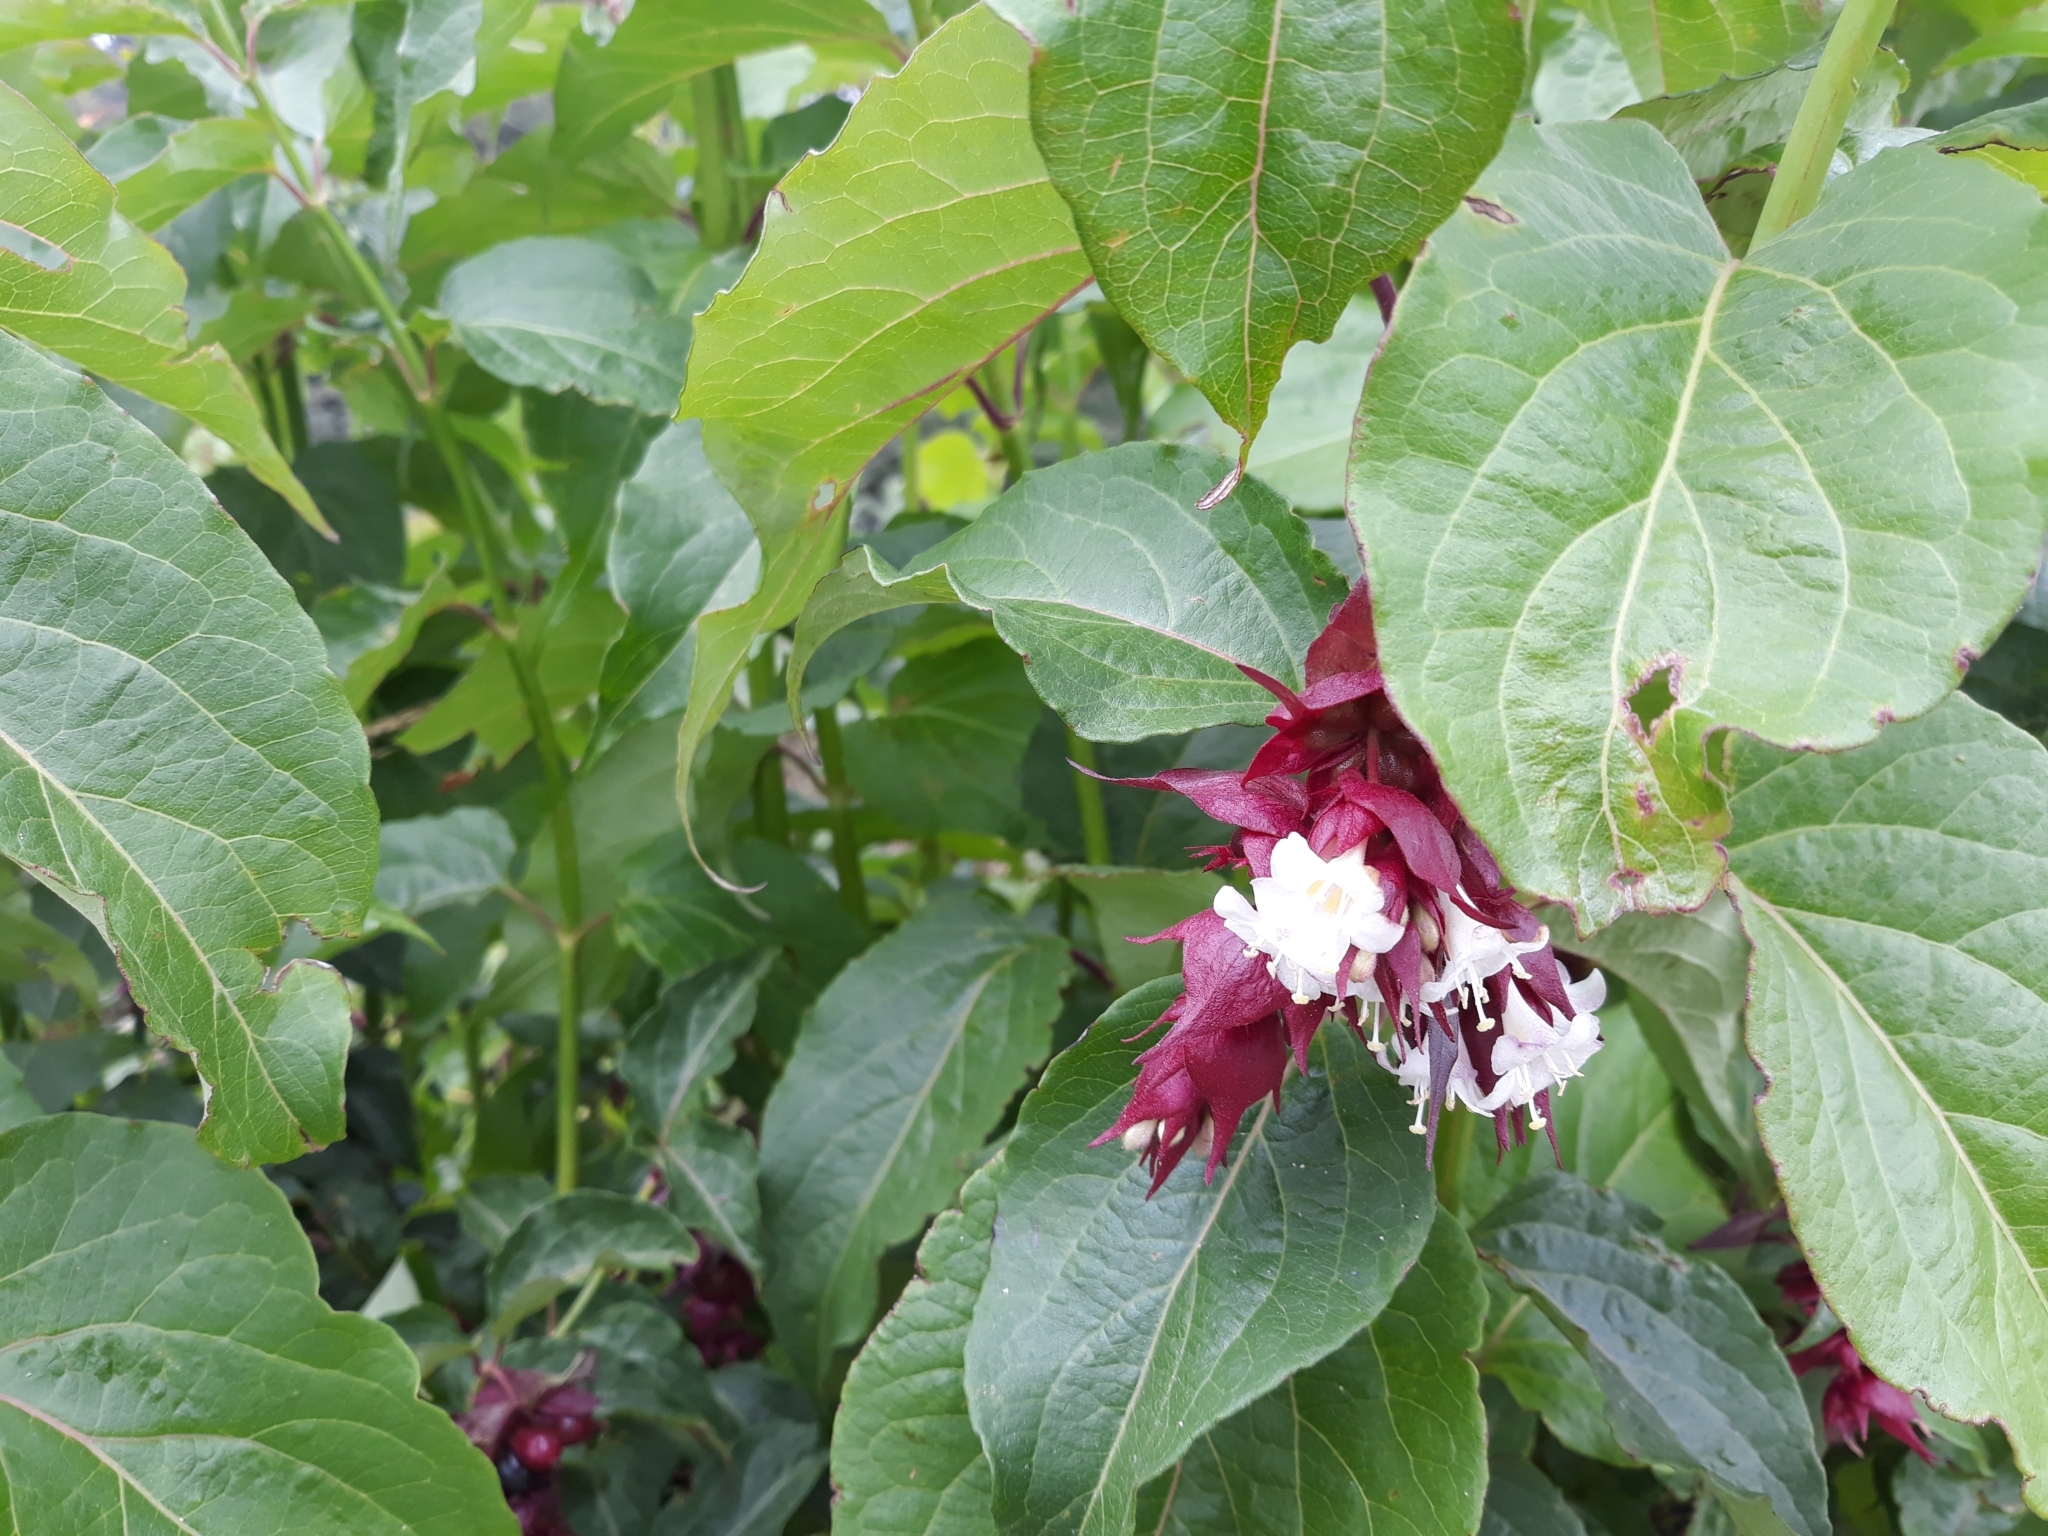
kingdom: Plantae
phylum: Tracheophyta
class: Magnoliopsida
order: Dipsacales
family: Caprifoliaceae
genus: Leycesteria
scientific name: Leycesteria formosa
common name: Himalayan honeysuckle
